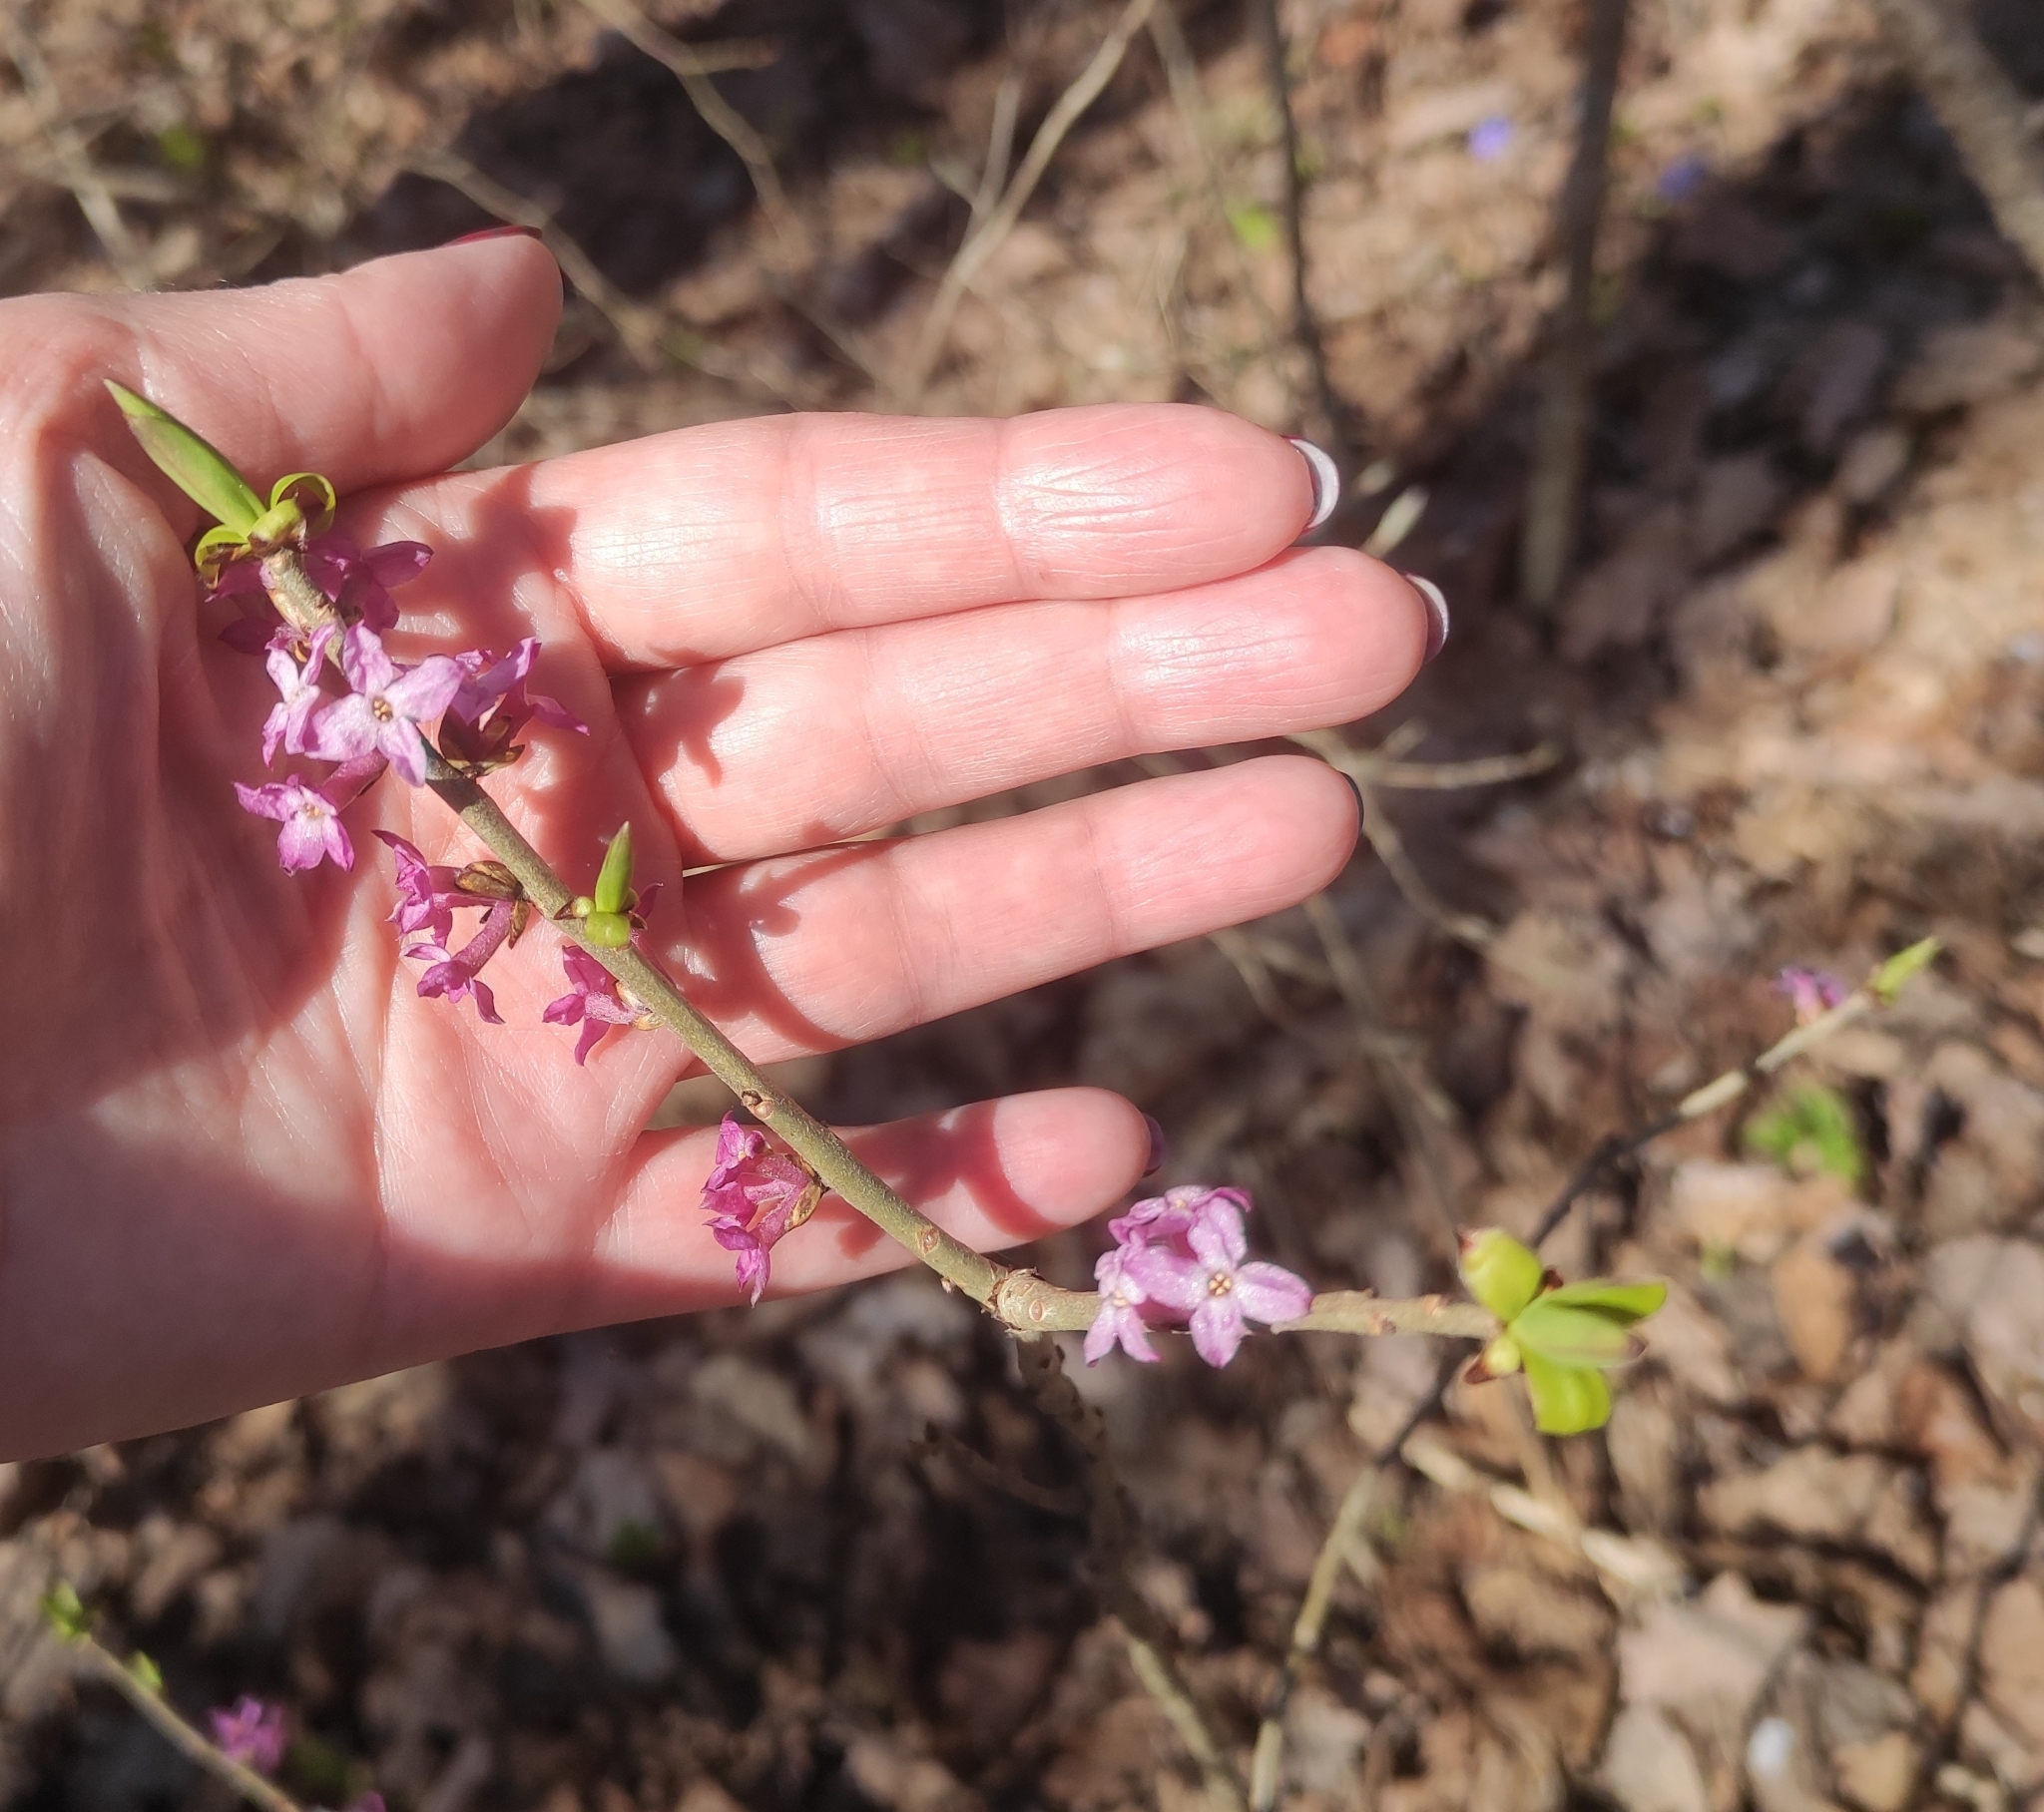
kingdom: Plantae
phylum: Tracheophyta
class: Magnoliopsida
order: Malvales
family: Thymelaeaceae
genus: Daphne
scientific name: Daphne mezereum
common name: Mezereon
